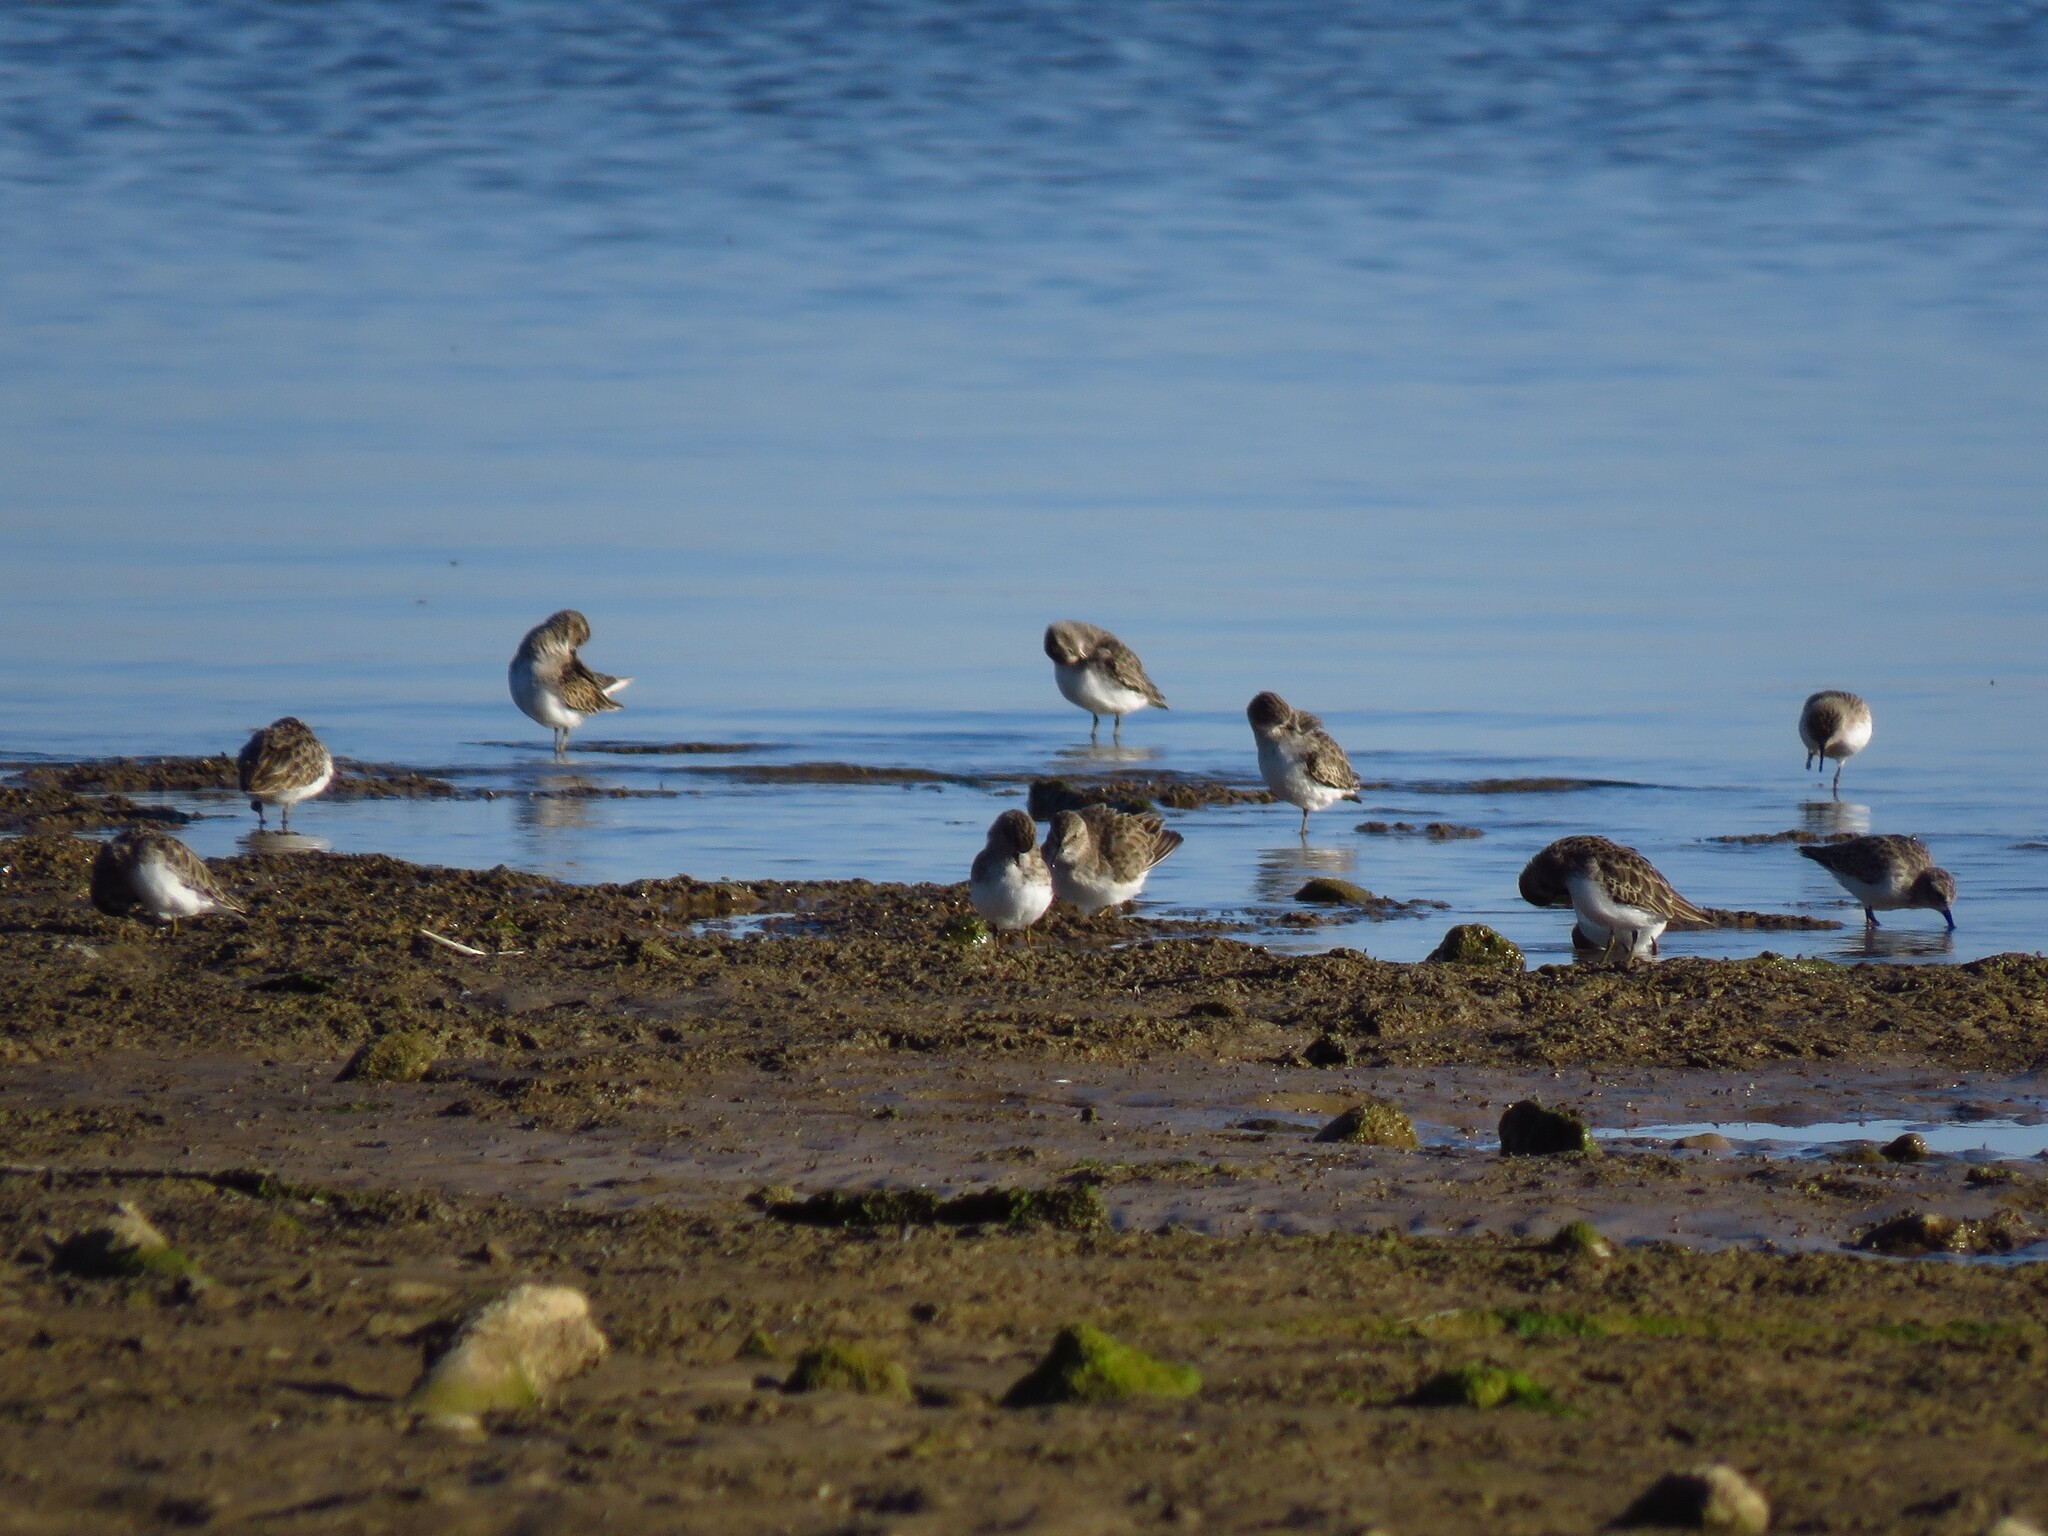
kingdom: Animalia
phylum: Chordata
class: Aves
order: Charadriiformes
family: Scolopacidae
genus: Calidris
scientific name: Calidris minutilla
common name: Least sandpiper
